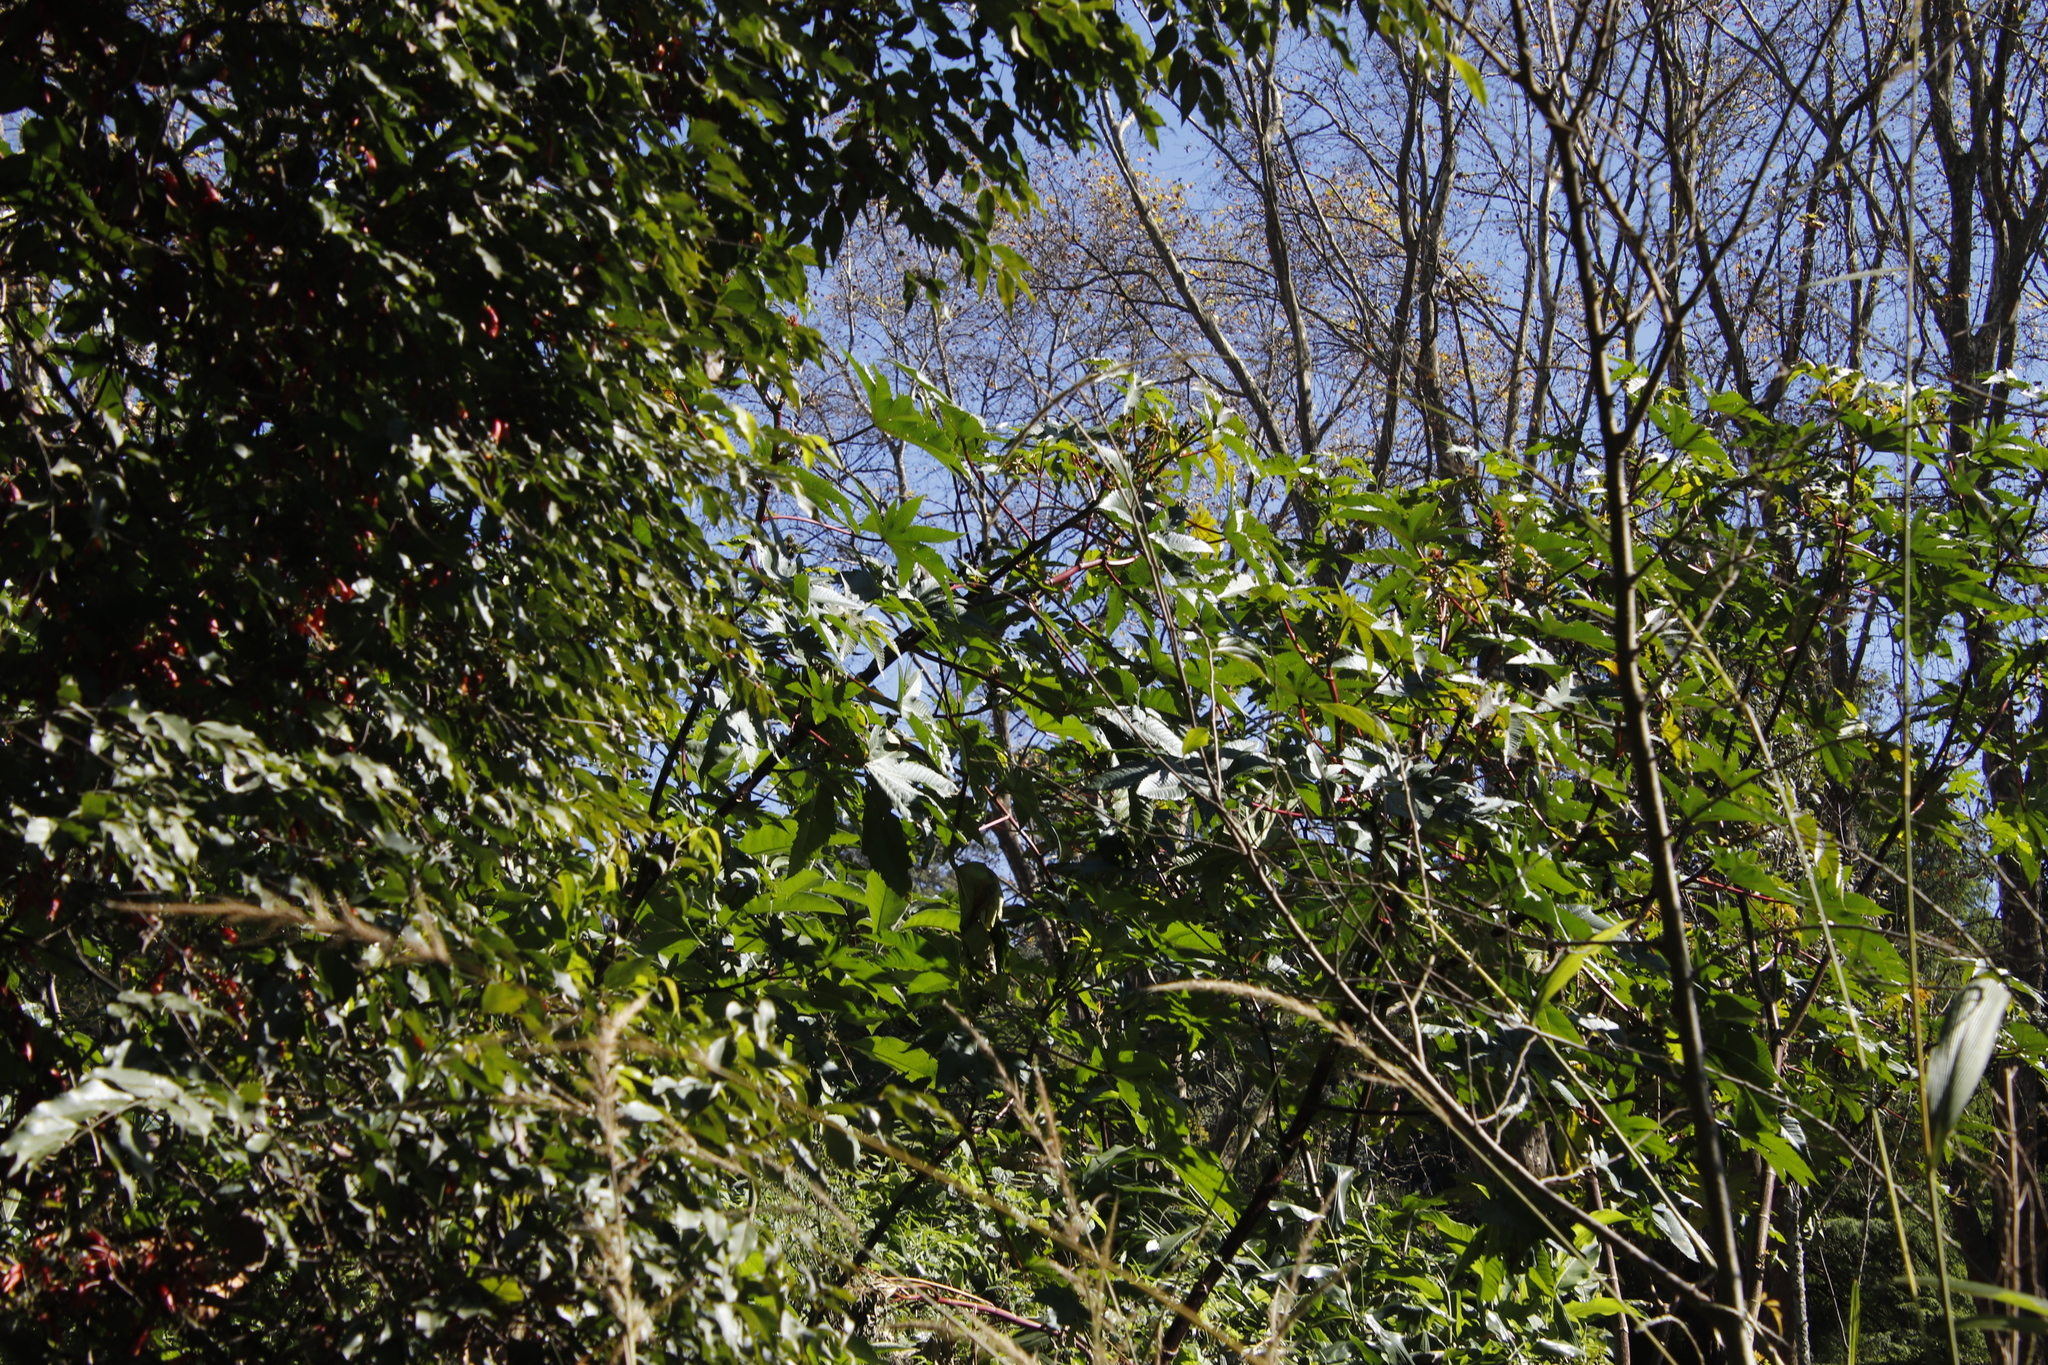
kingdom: Plantae
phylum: Tracheophyta
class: Magnoliopsida
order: Malpighiales
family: Euphorbiaceae
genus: Ricinus
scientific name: Ricinus communis
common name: Castor-oil-plant
